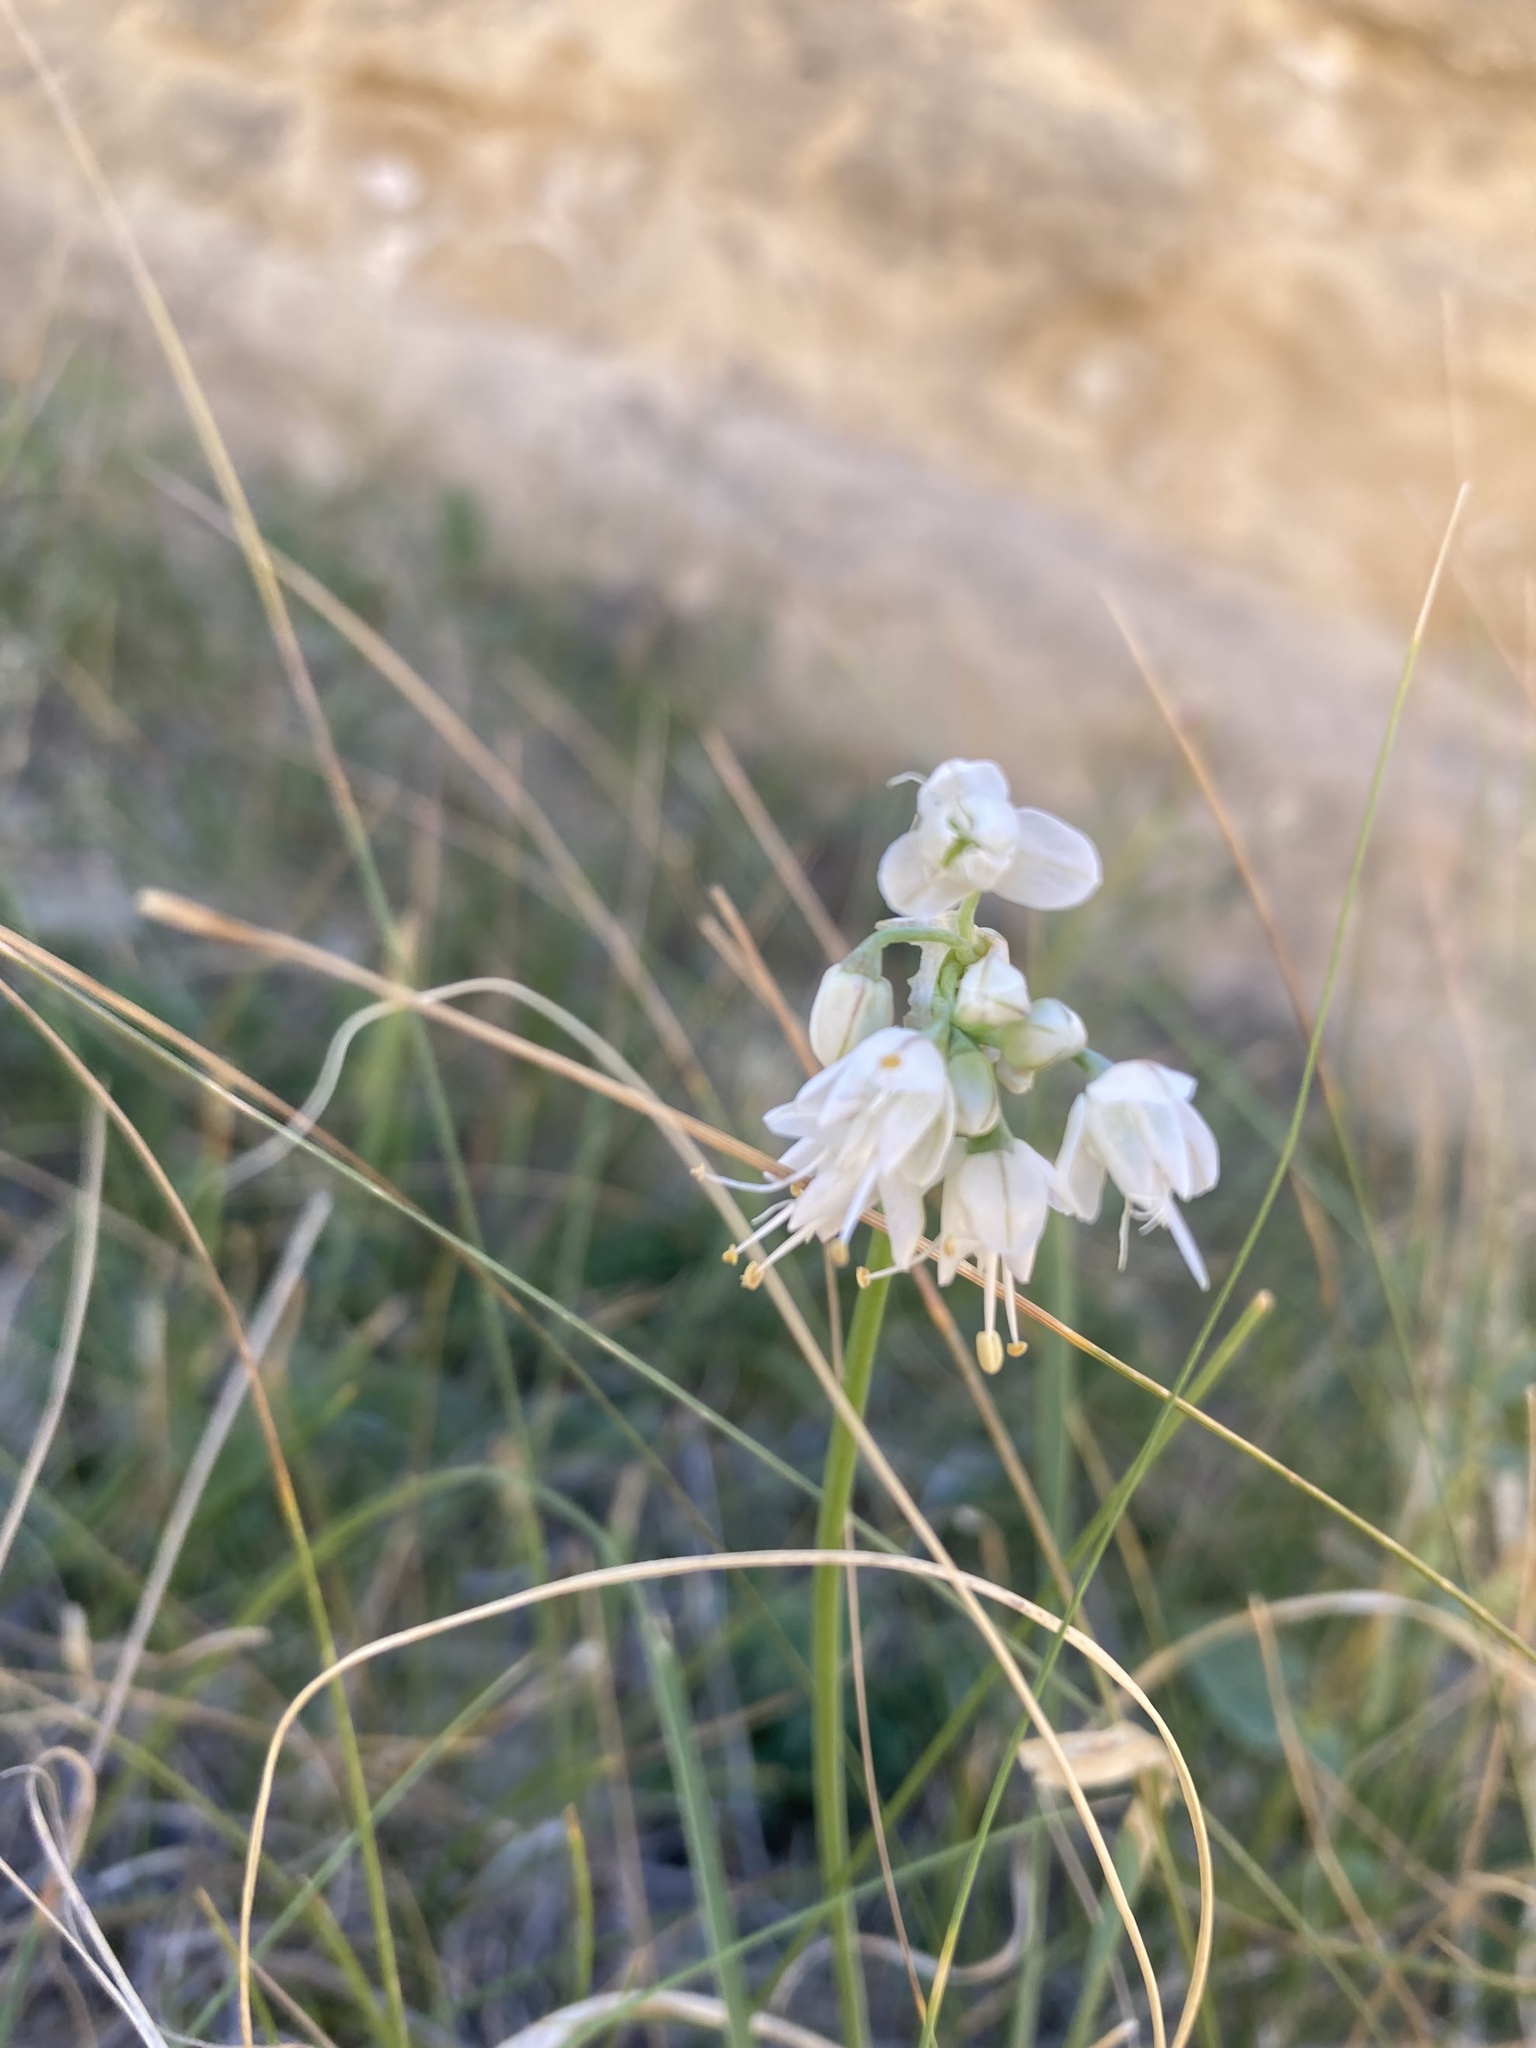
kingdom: Plantae
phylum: Tracheophyta
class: Liliopsida
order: Asparagales
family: Amaryllidaceae
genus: Allium
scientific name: Allium cernuum
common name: Nodding onion
